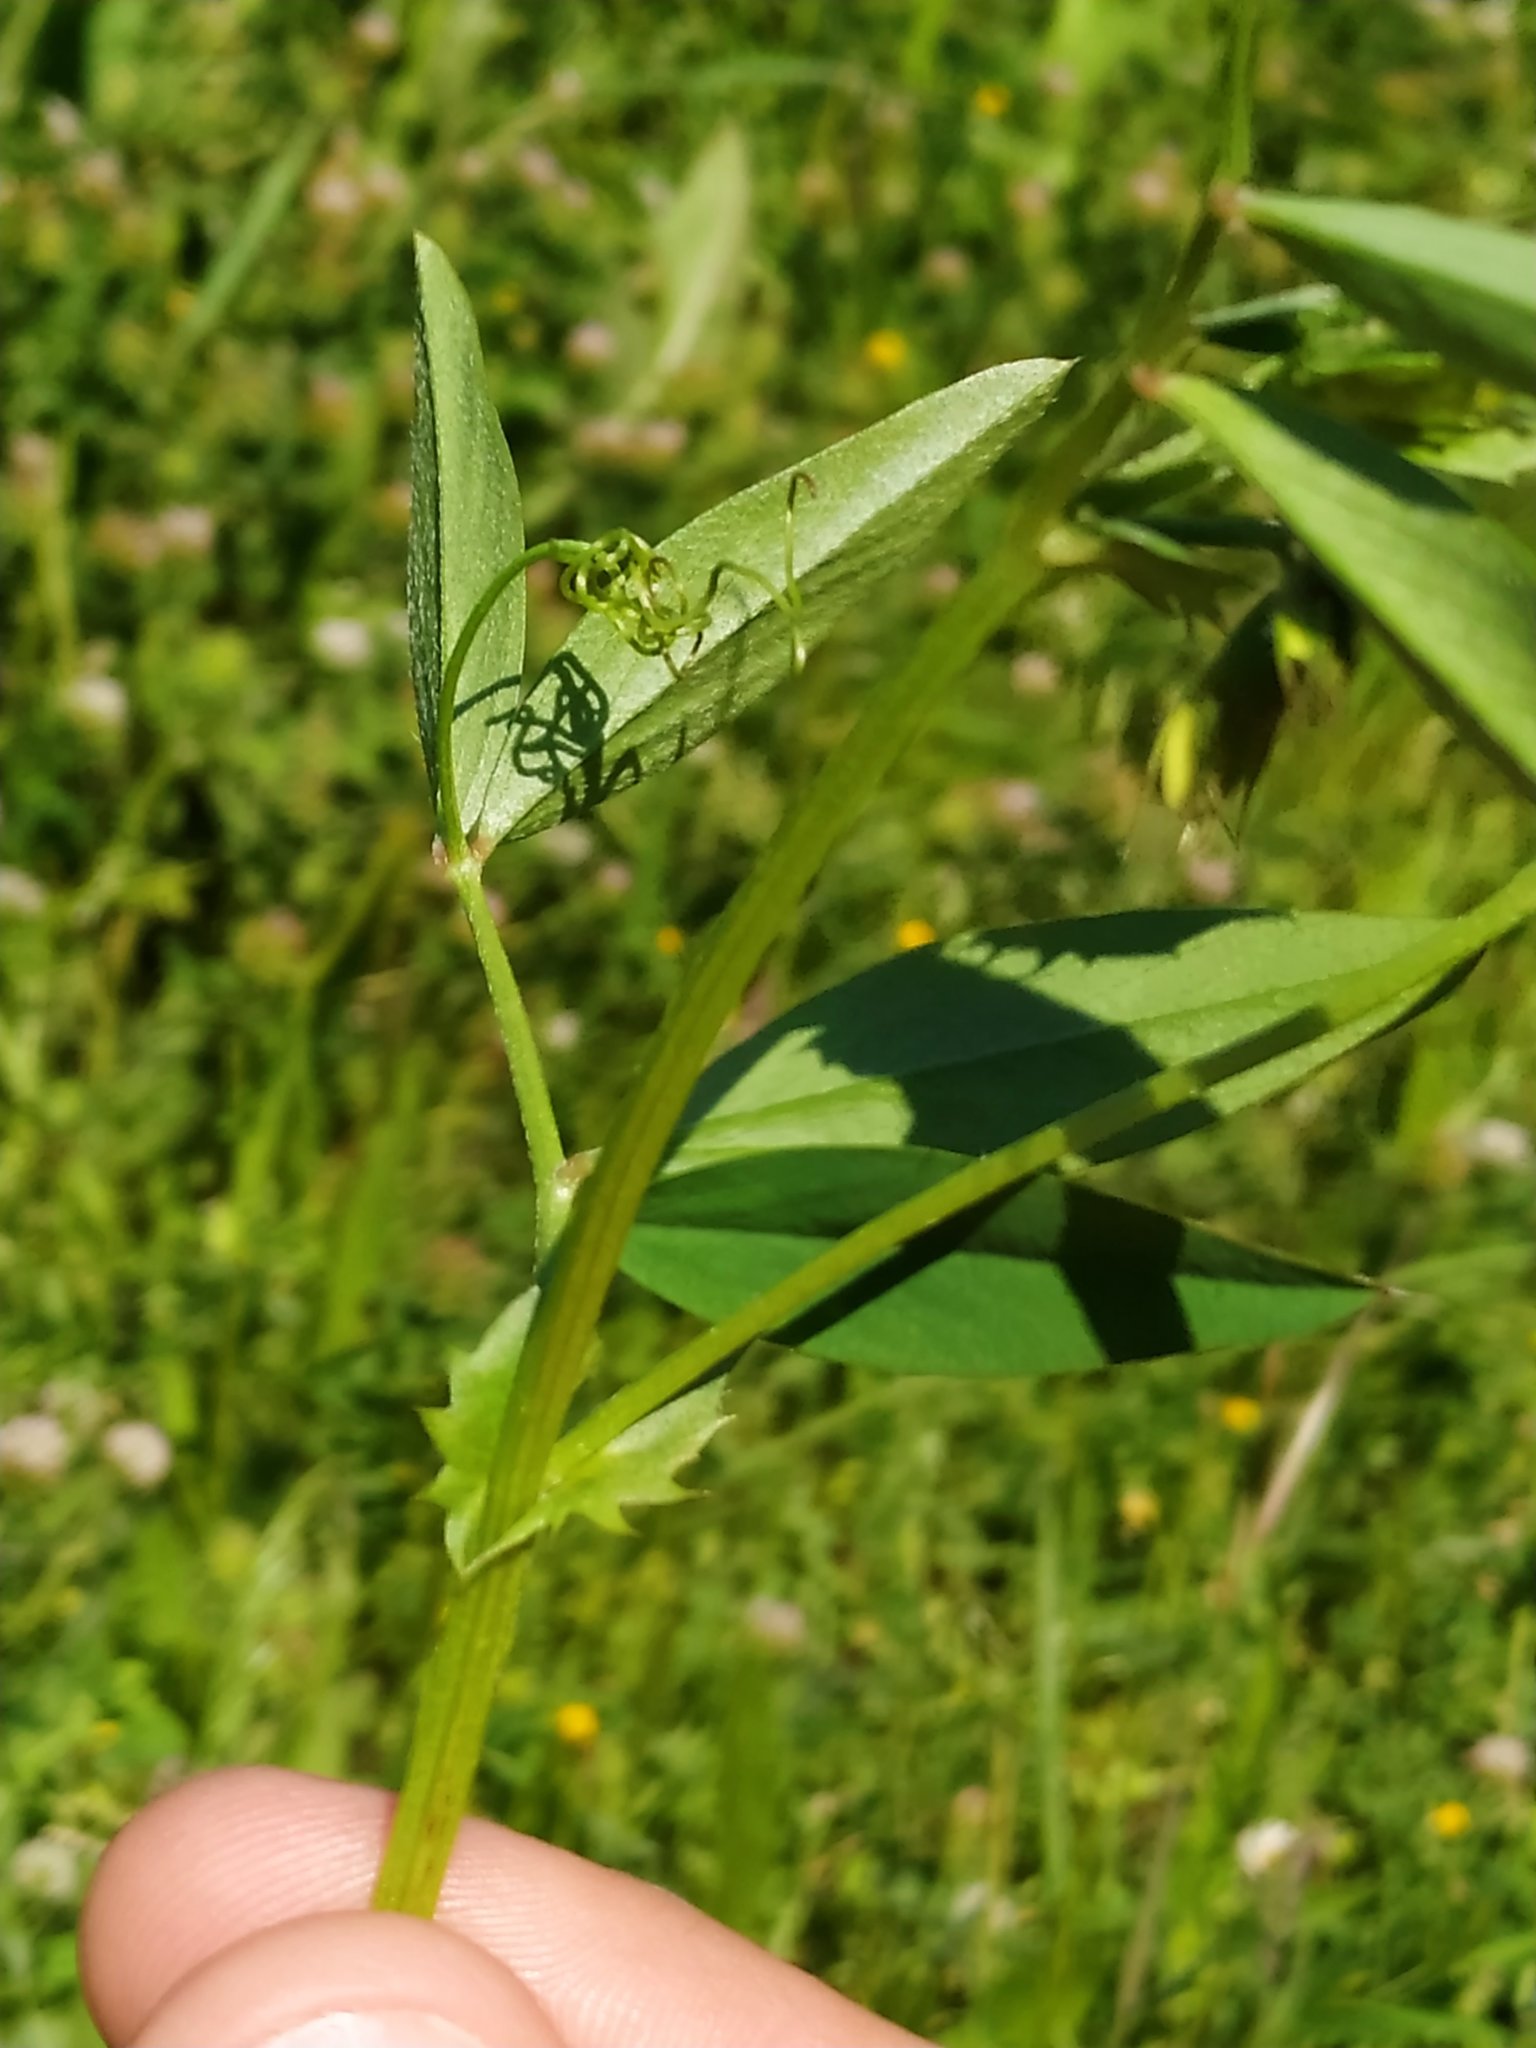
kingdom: Plantae
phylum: Tracheophyta
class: Magnoliopsida
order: Fabales
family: Fabaceae
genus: Vicia
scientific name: Vicia bithynica
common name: Bithynian vetch
